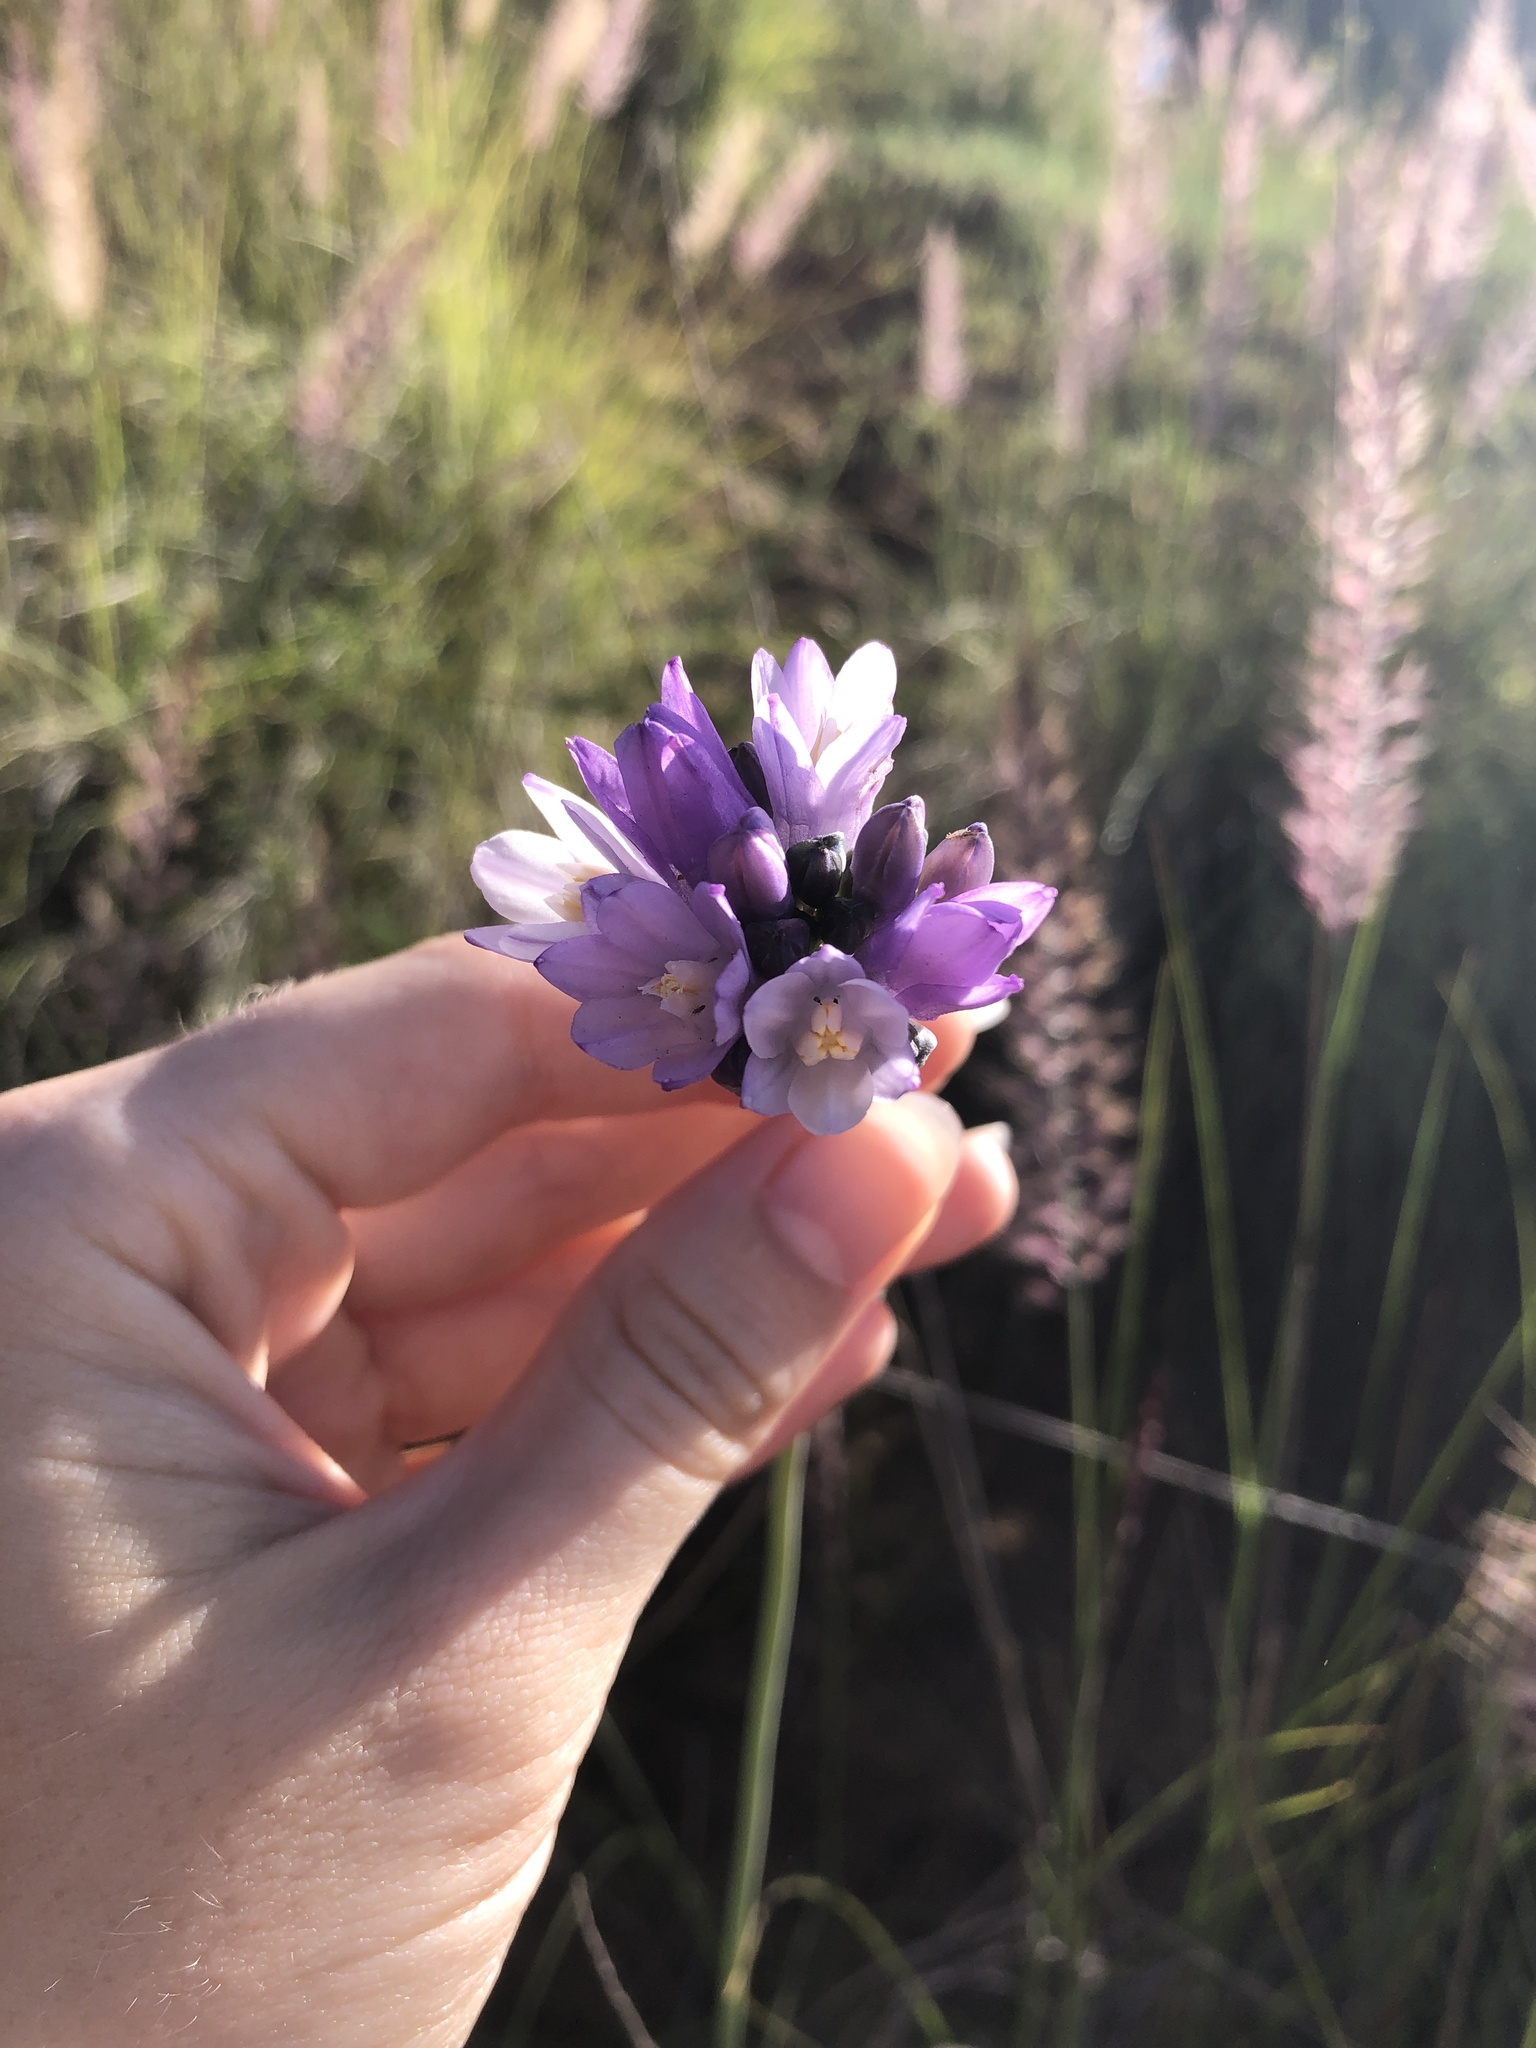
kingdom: Plantae
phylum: Tracheophyta
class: Liliopsida
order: Asparagales
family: Asparagaceae
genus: Dipterostemon
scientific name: Dipterostemon capitatus
